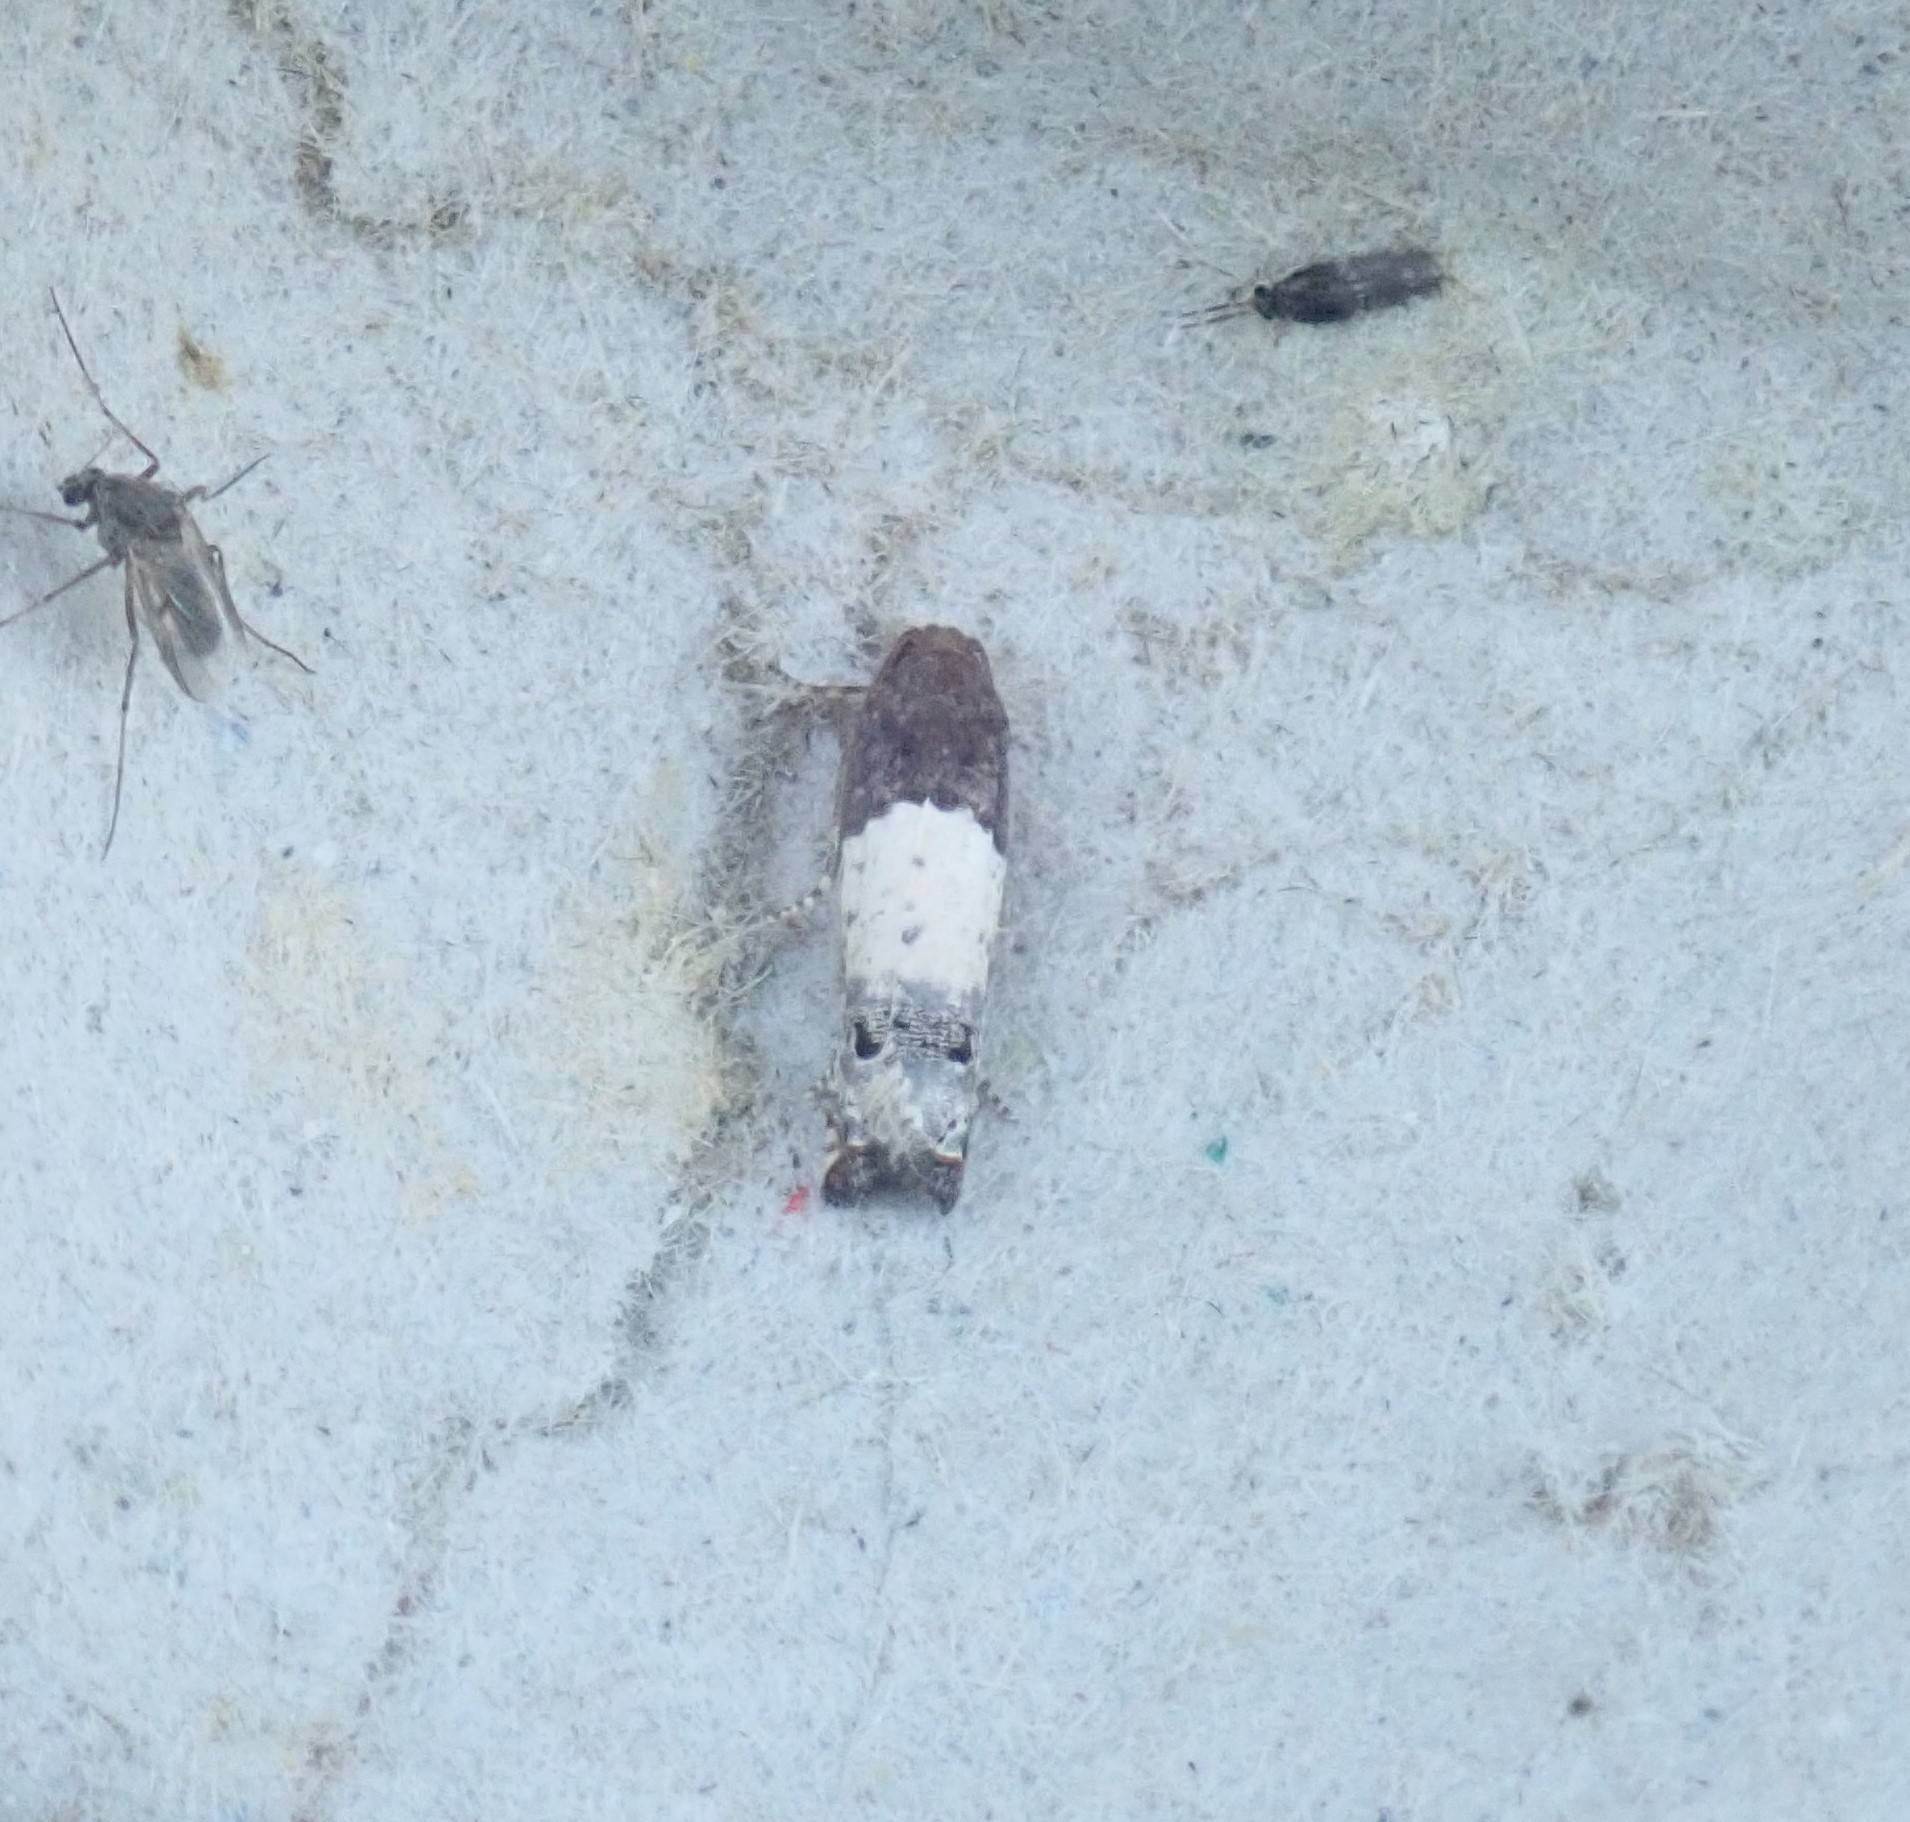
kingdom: Animalia
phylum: Arthropoda
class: Insecta
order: Lepidoptera
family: Tortricidae
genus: Epiblema
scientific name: Epiblema scudderiana
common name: Goldenrod gall moth
